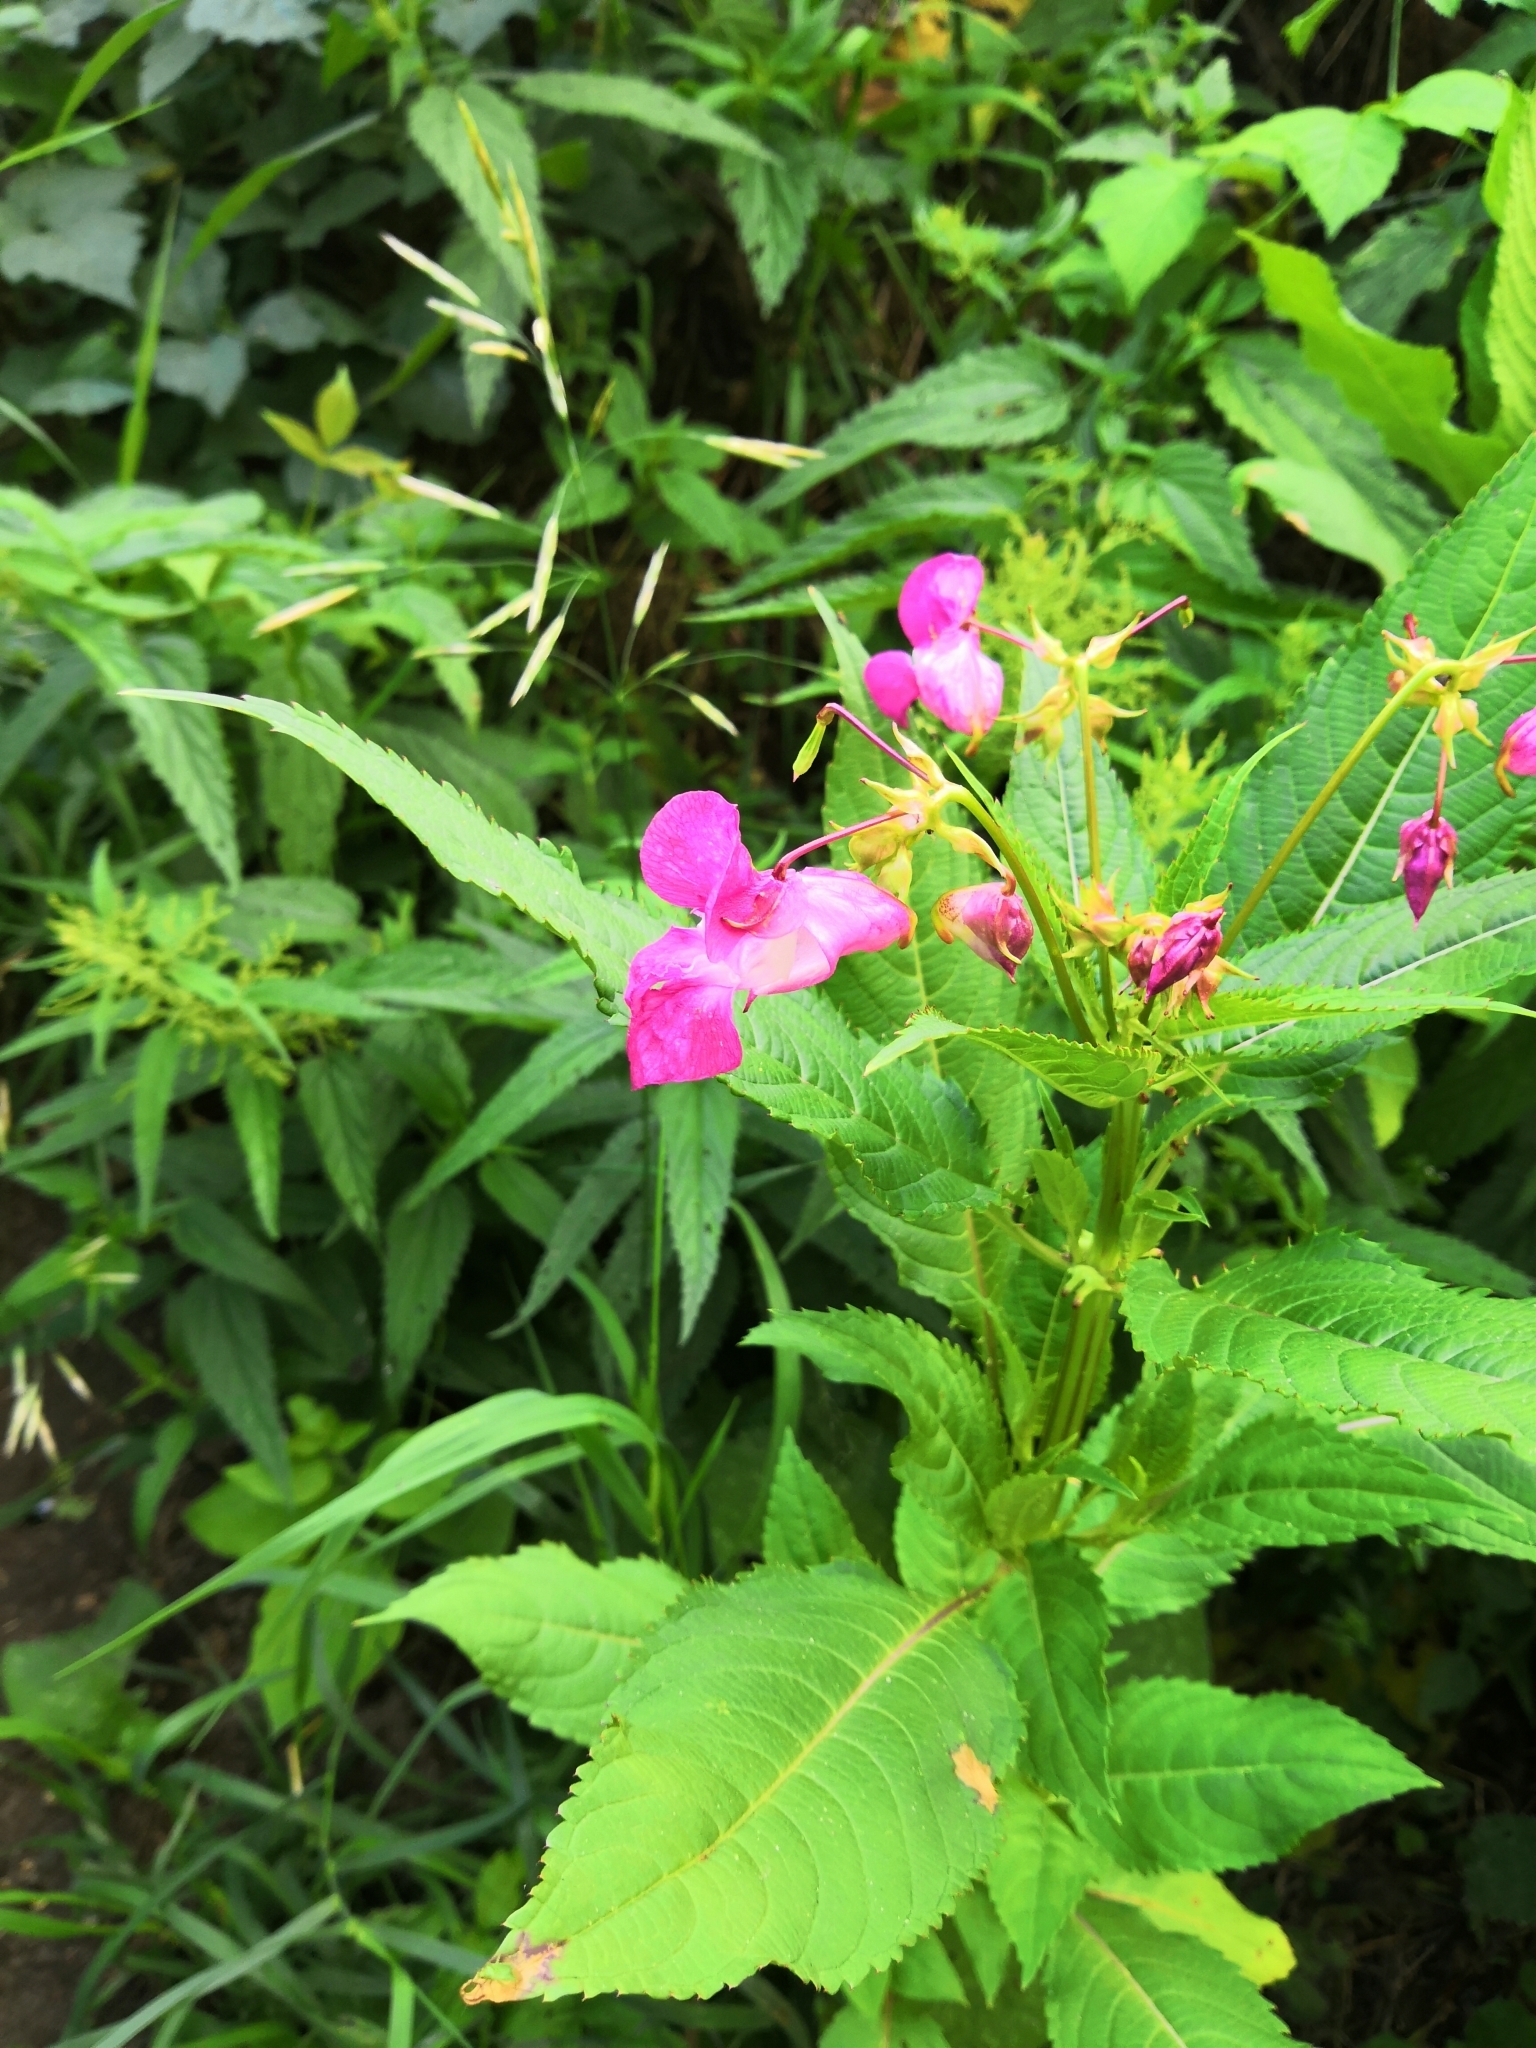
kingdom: Plantae
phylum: Tracheophyta
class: Magnoliopsida
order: Ericales
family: Balsaminaceae
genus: Impatiens
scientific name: Impatiens glandulifera
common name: Himalayan balsam
